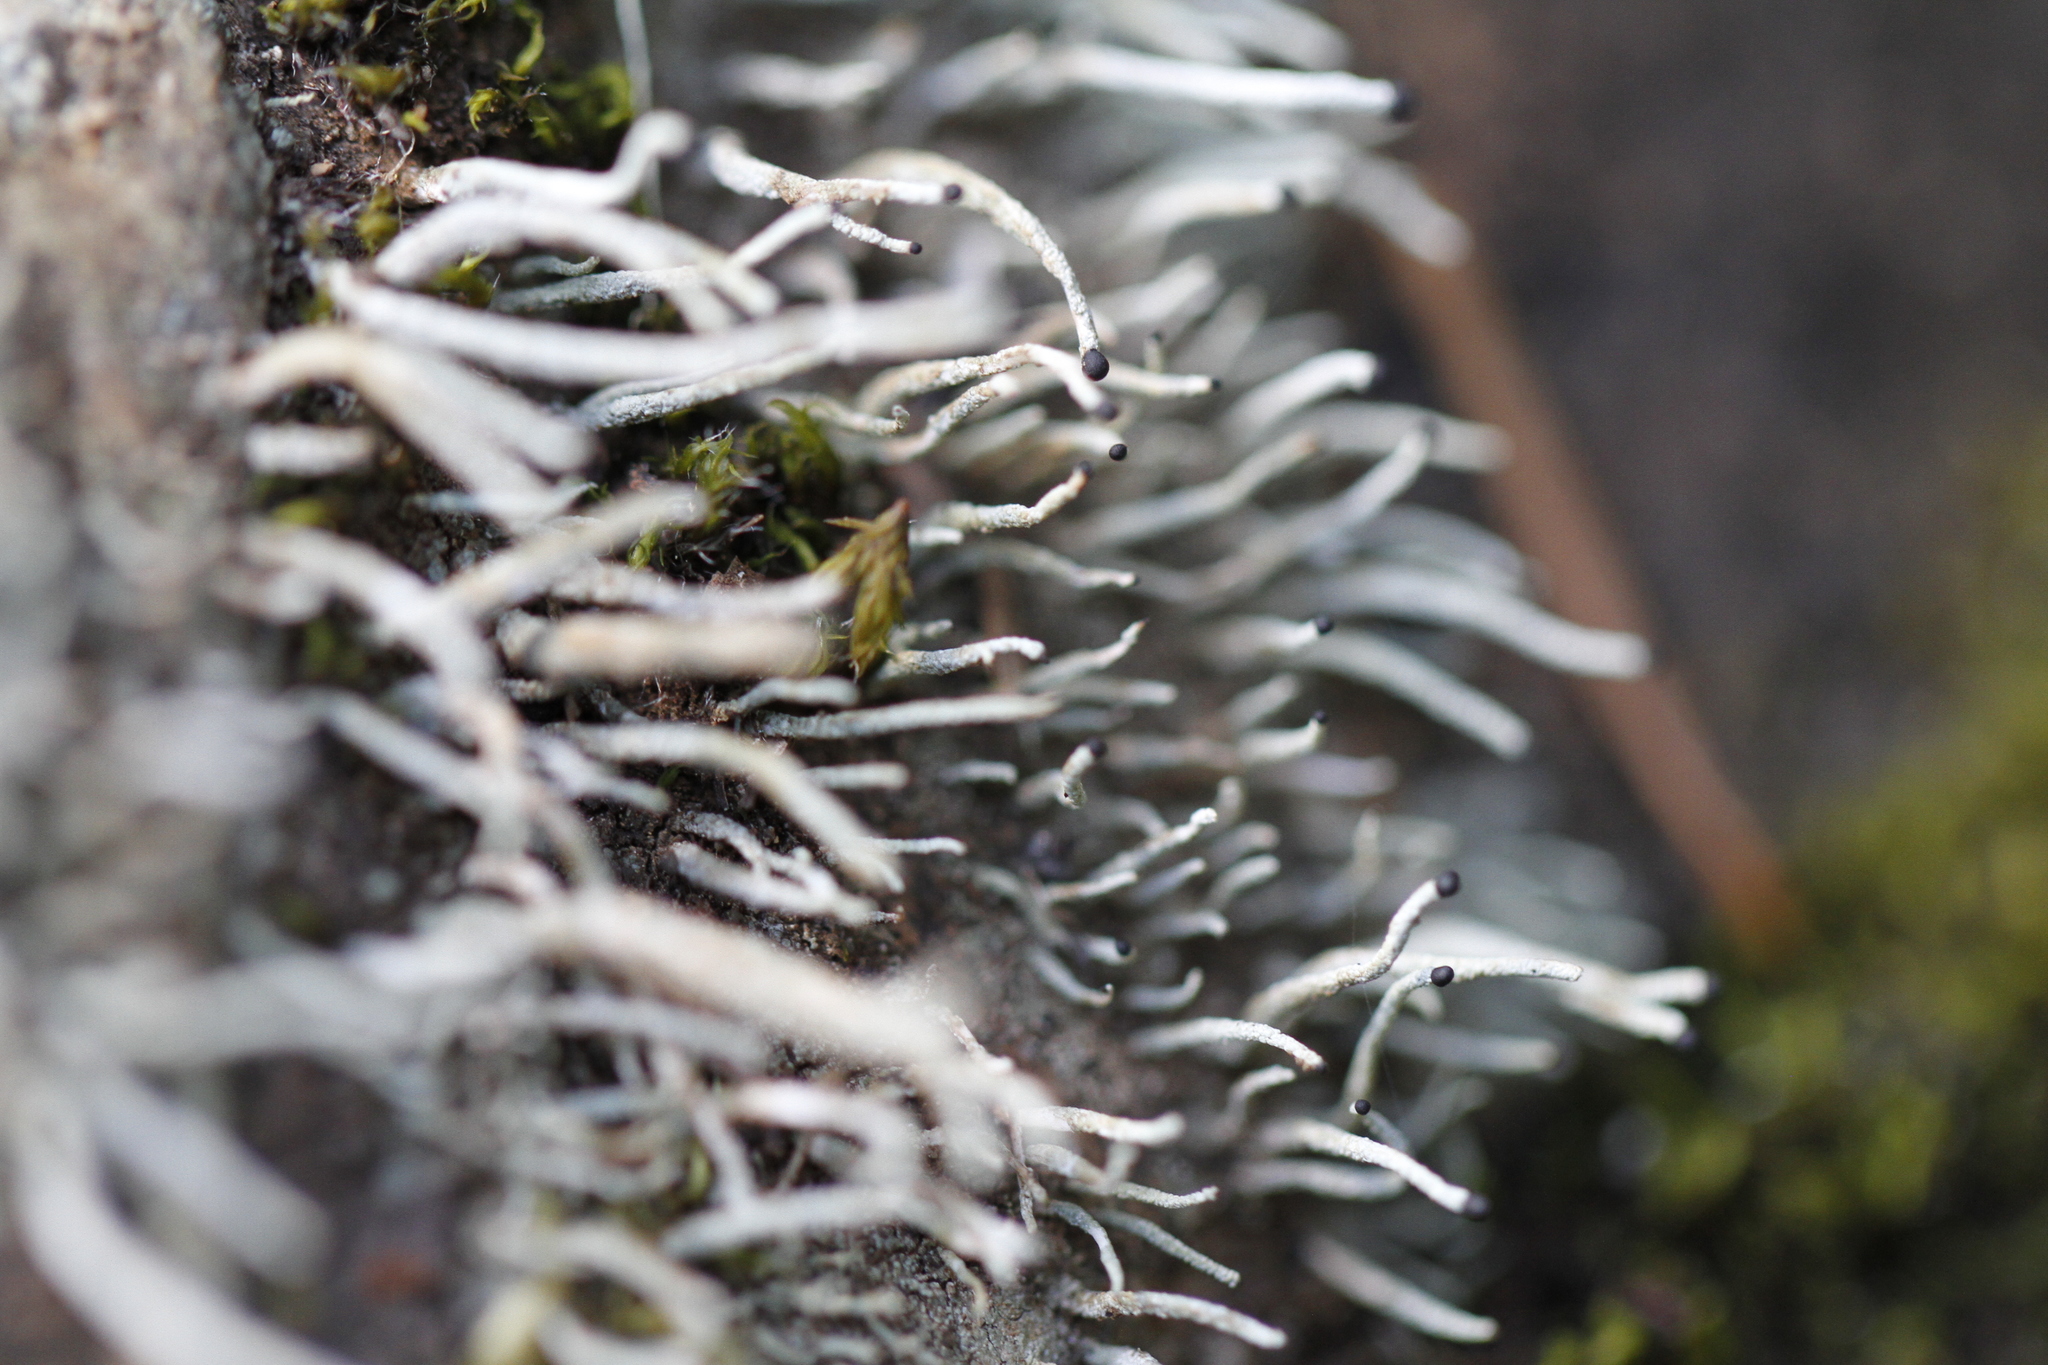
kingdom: Fungi
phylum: Ascomycota
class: Lecanoromycetes
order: Lecanorales
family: Cladoniaceae
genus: Pilophorus
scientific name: Pilophorus acicularis
